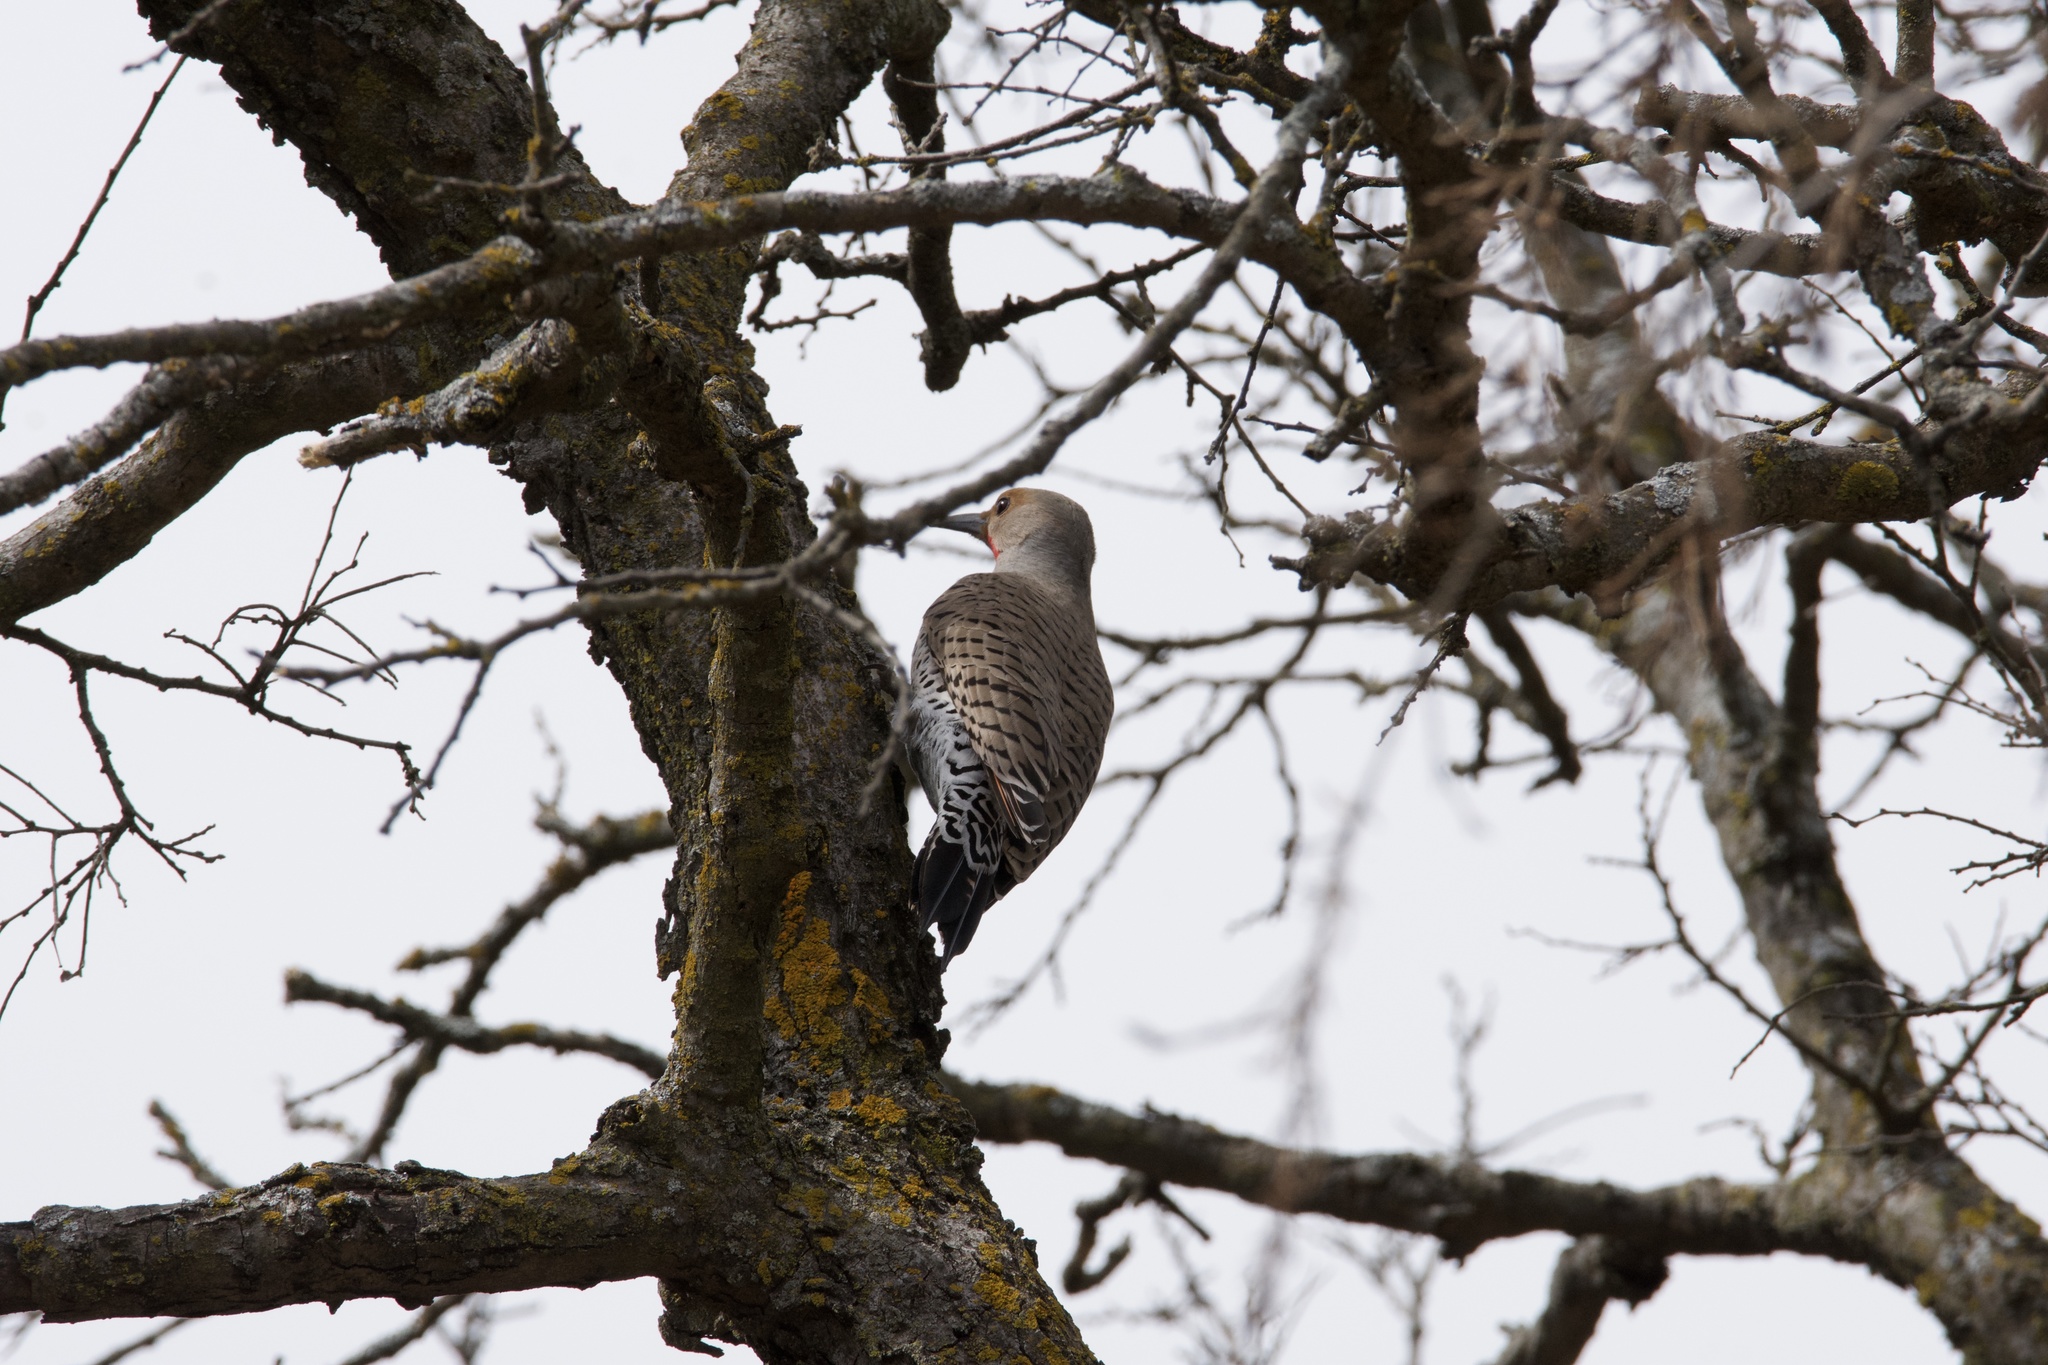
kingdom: Animalia
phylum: Chordata
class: Aves
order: Piciformes
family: Picidae
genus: Colaptes
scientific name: Colaptes auratus
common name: Northern flicker
